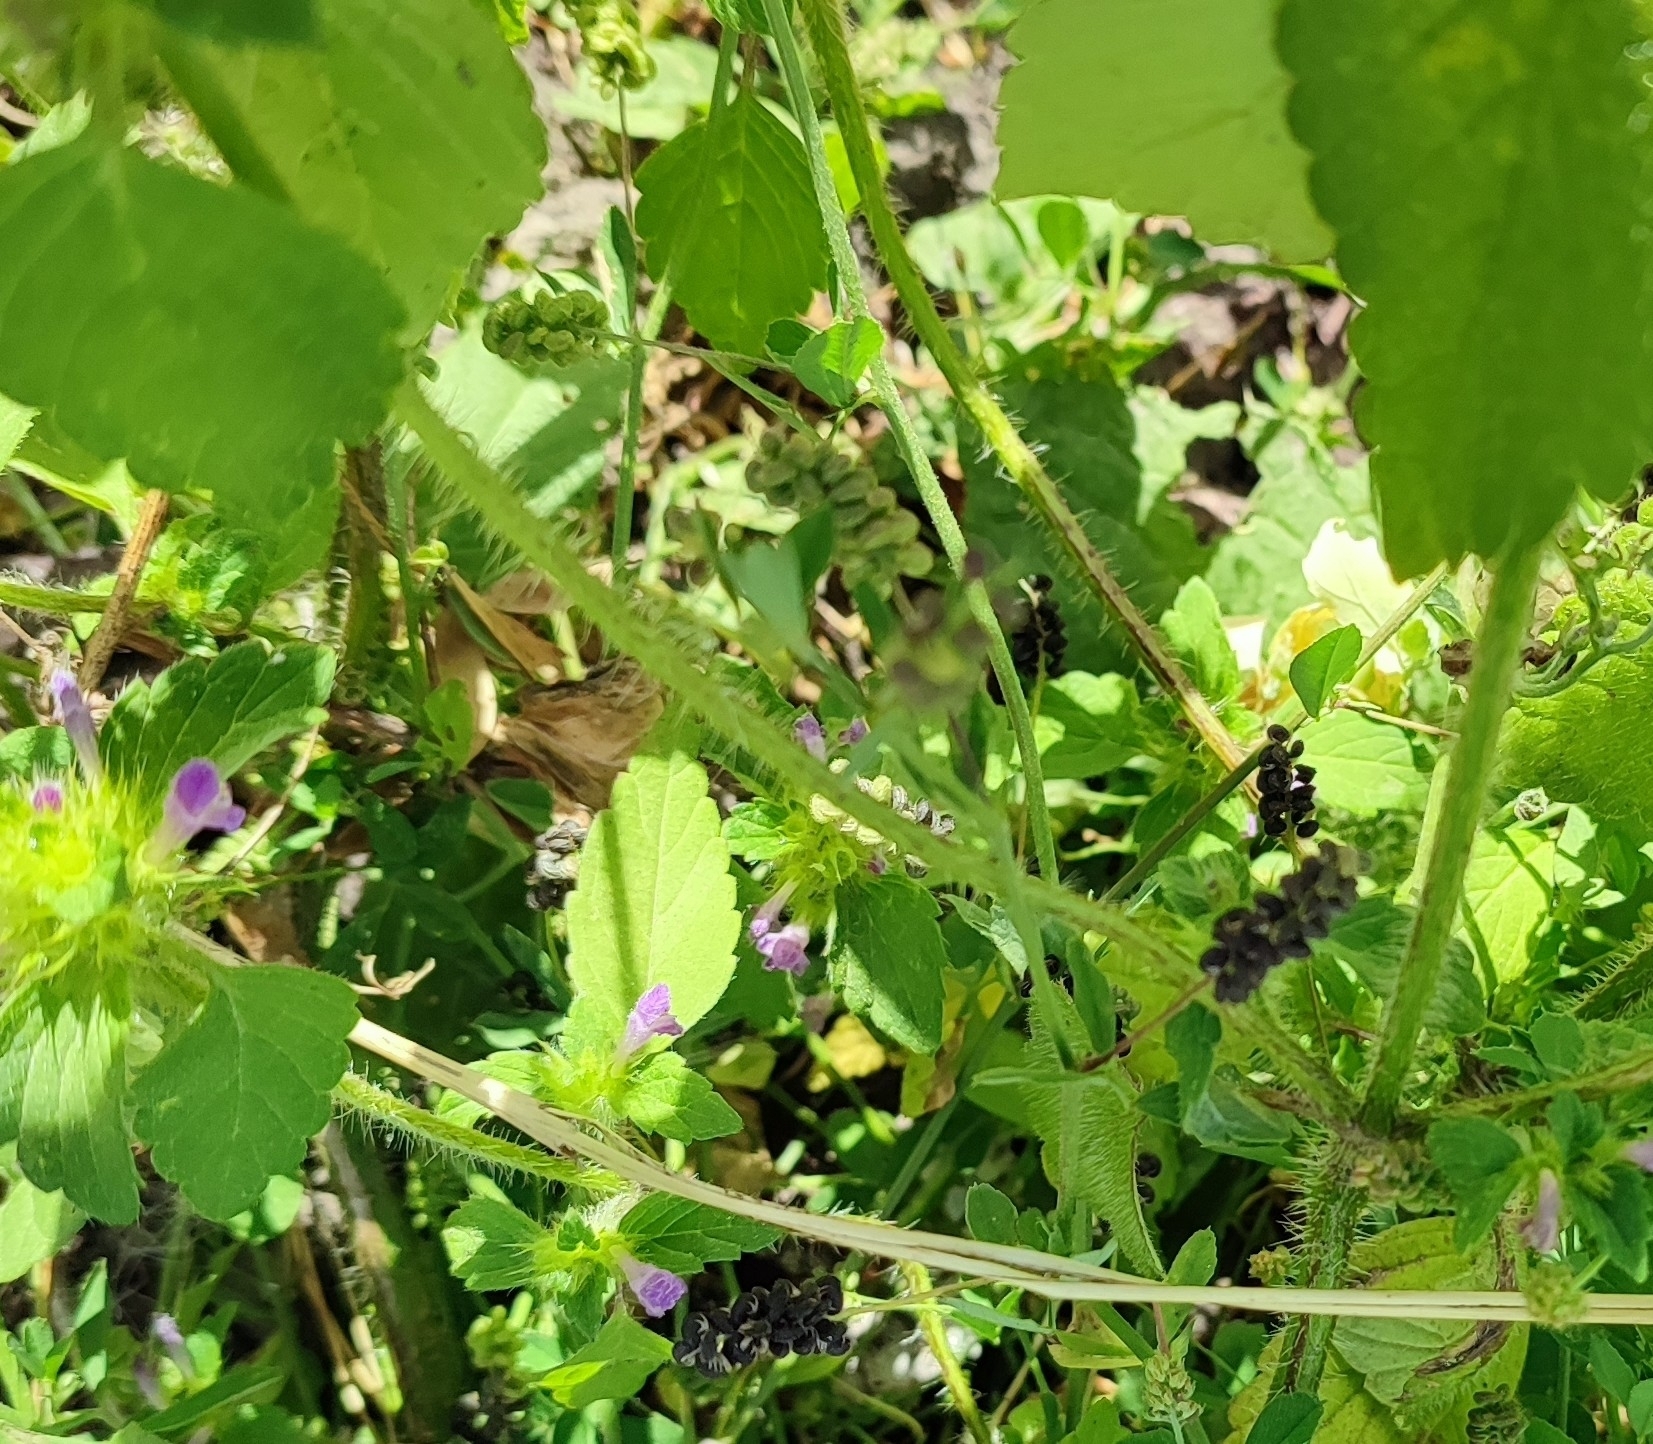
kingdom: Plantae
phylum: Tracheophyta
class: Magnoliopsida
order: Lamiales
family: Lamiaceae
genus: Galeopsis
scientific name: Galeopsis bifida
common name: Bifid hemp-nettle
